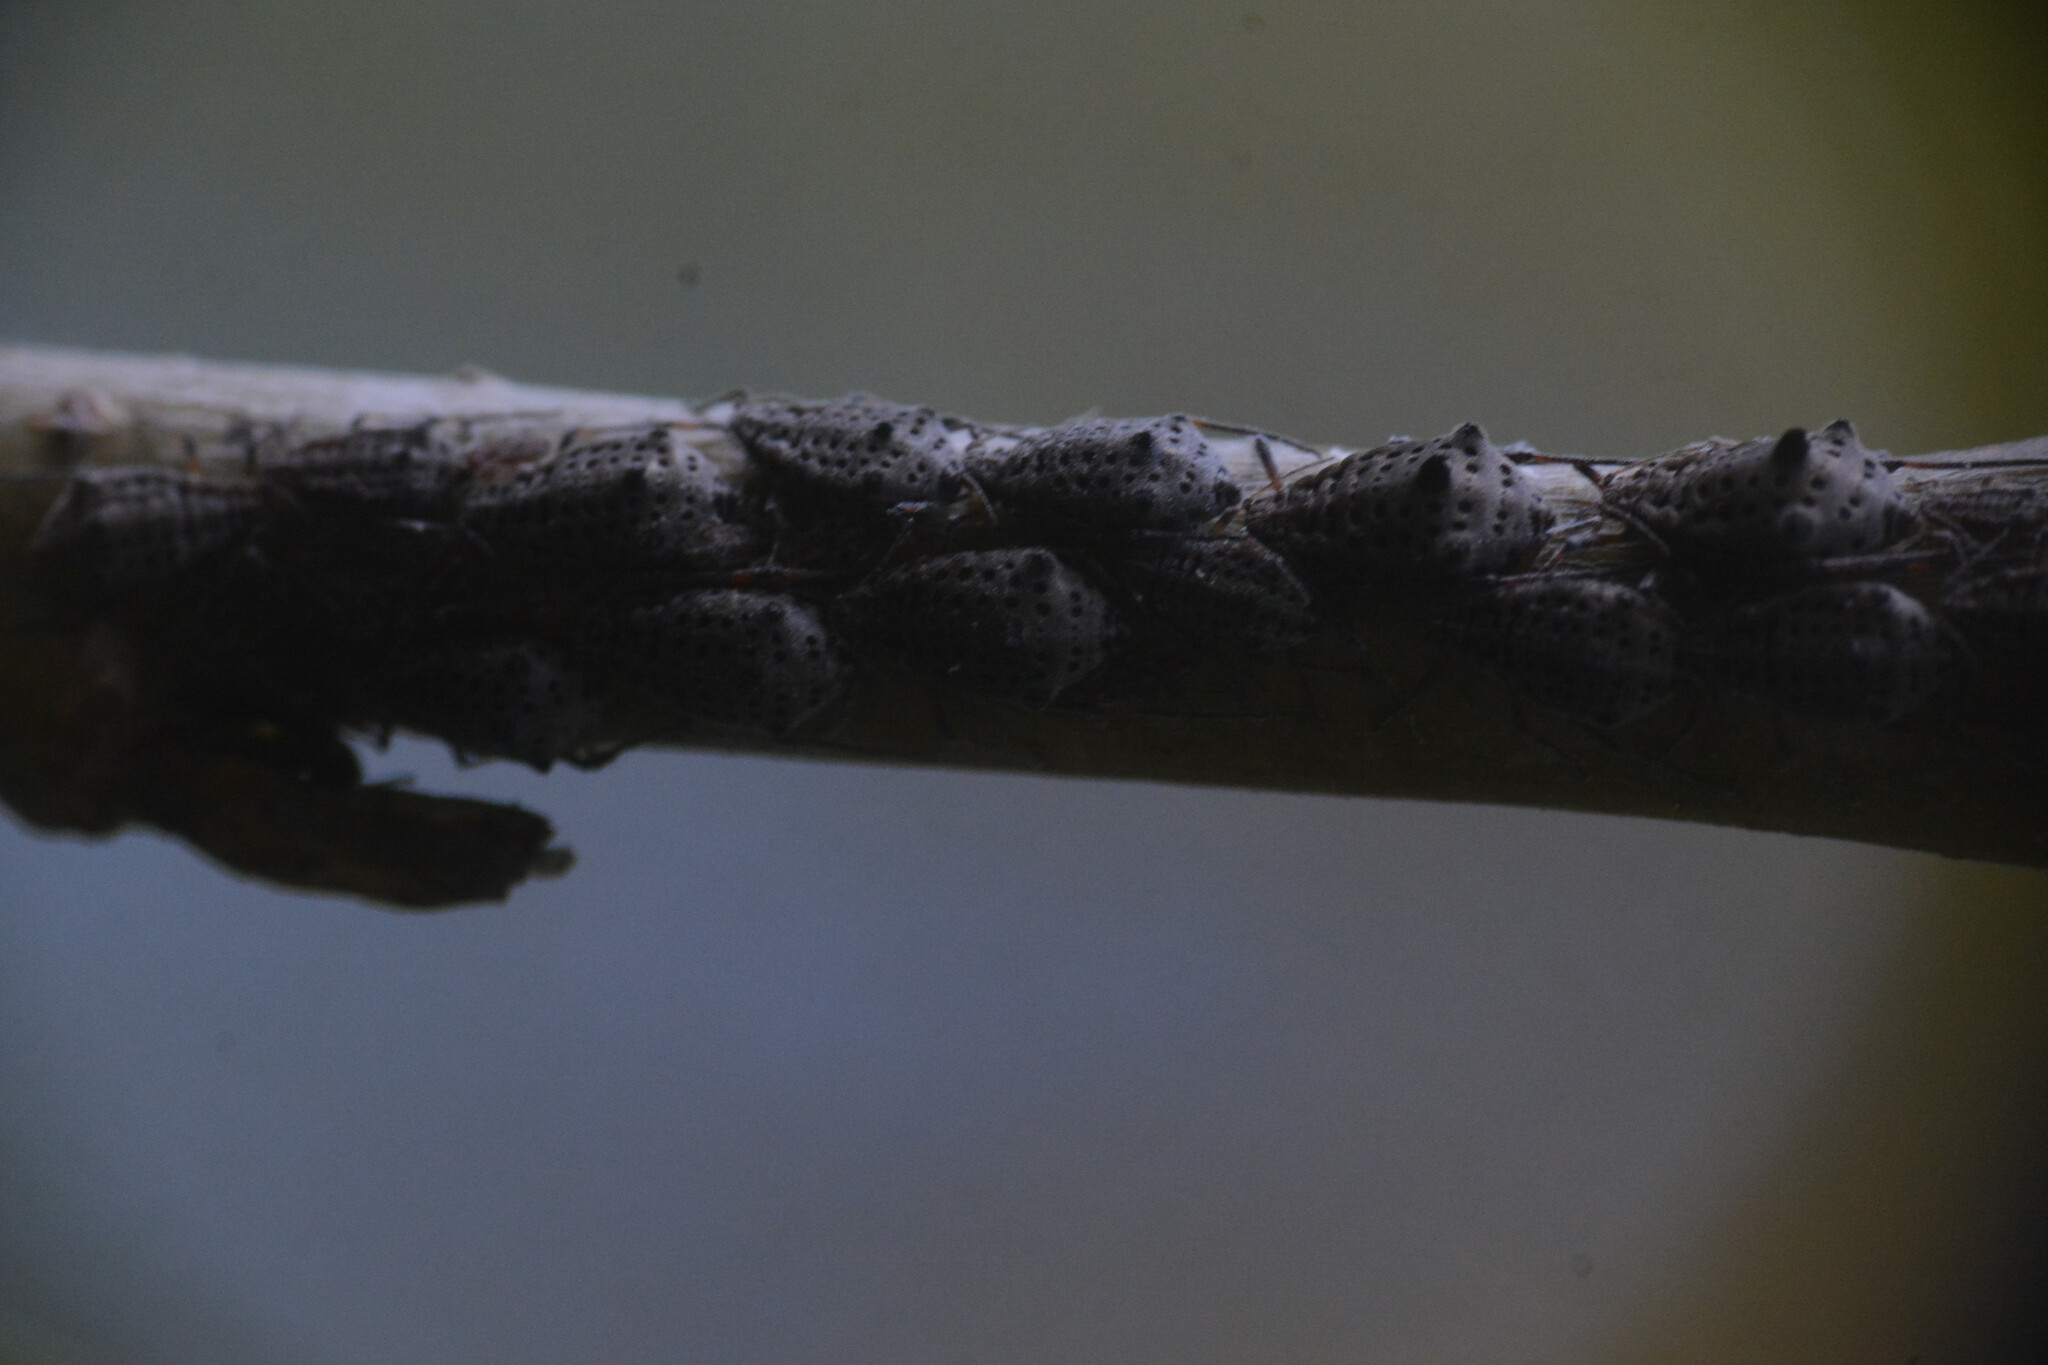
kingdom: Animalia
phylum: Arthropoda
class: Insecta
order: Hemiptera
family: Aphididae
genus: Tuberolachnus
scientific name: Tuberolachnus salignus
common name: Giant willow aphid
